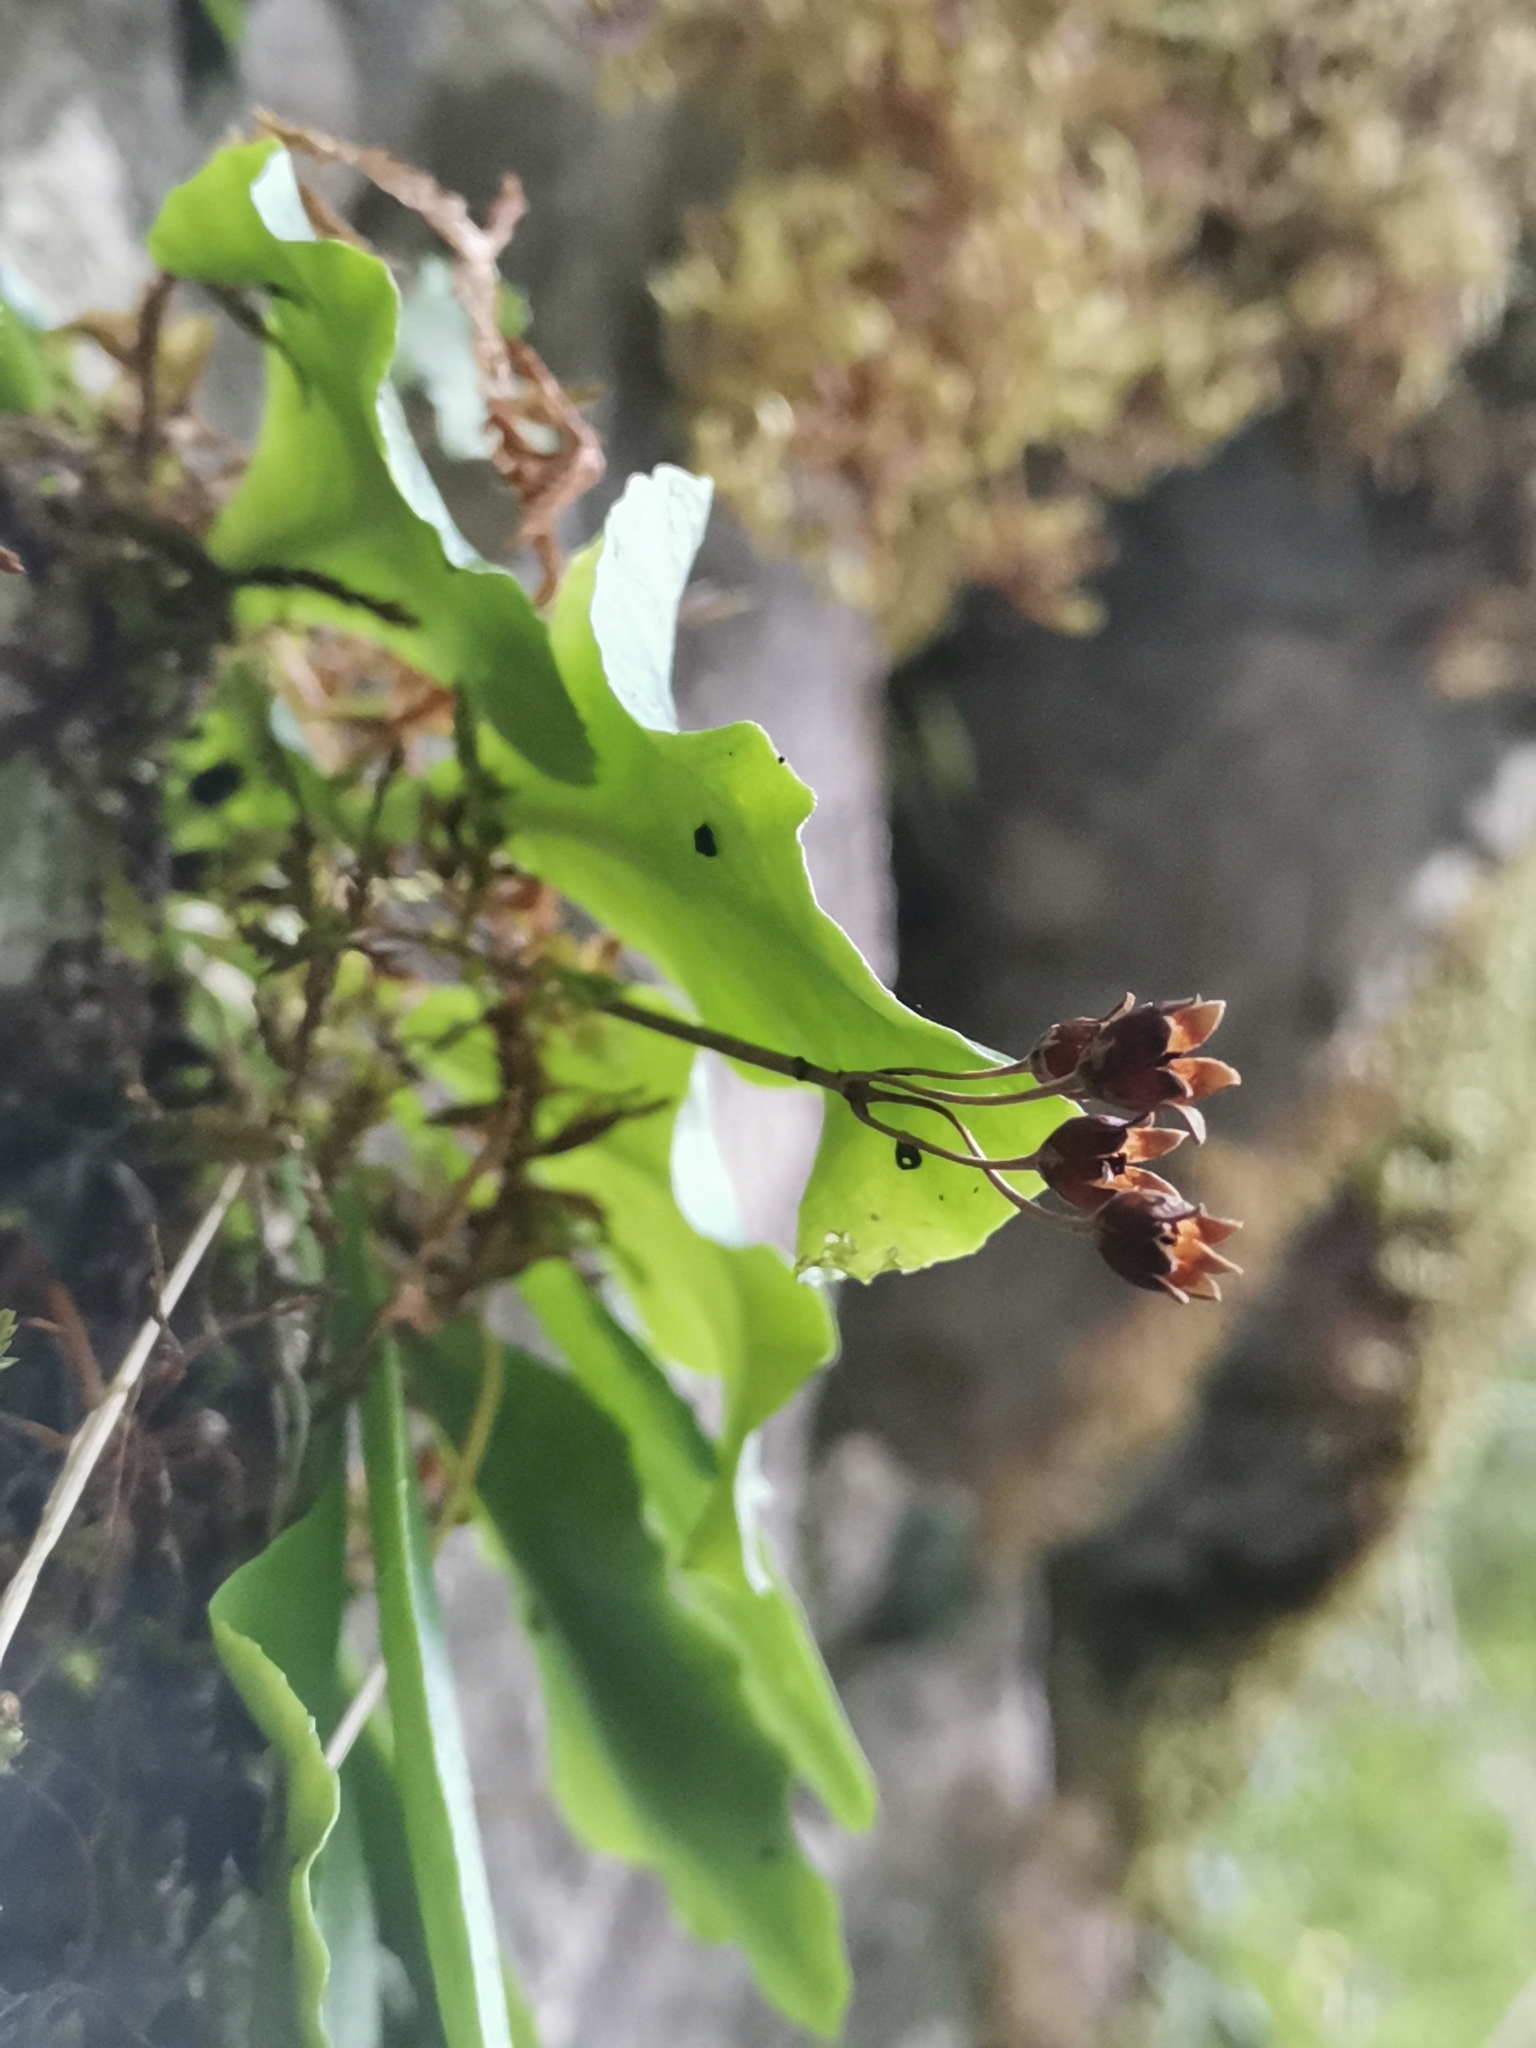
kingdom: Plantae
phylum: Tracheophyta
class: Magnoliopsida
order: Ericales
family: Primulaceae
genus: Primula
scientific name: Primula carniolica
